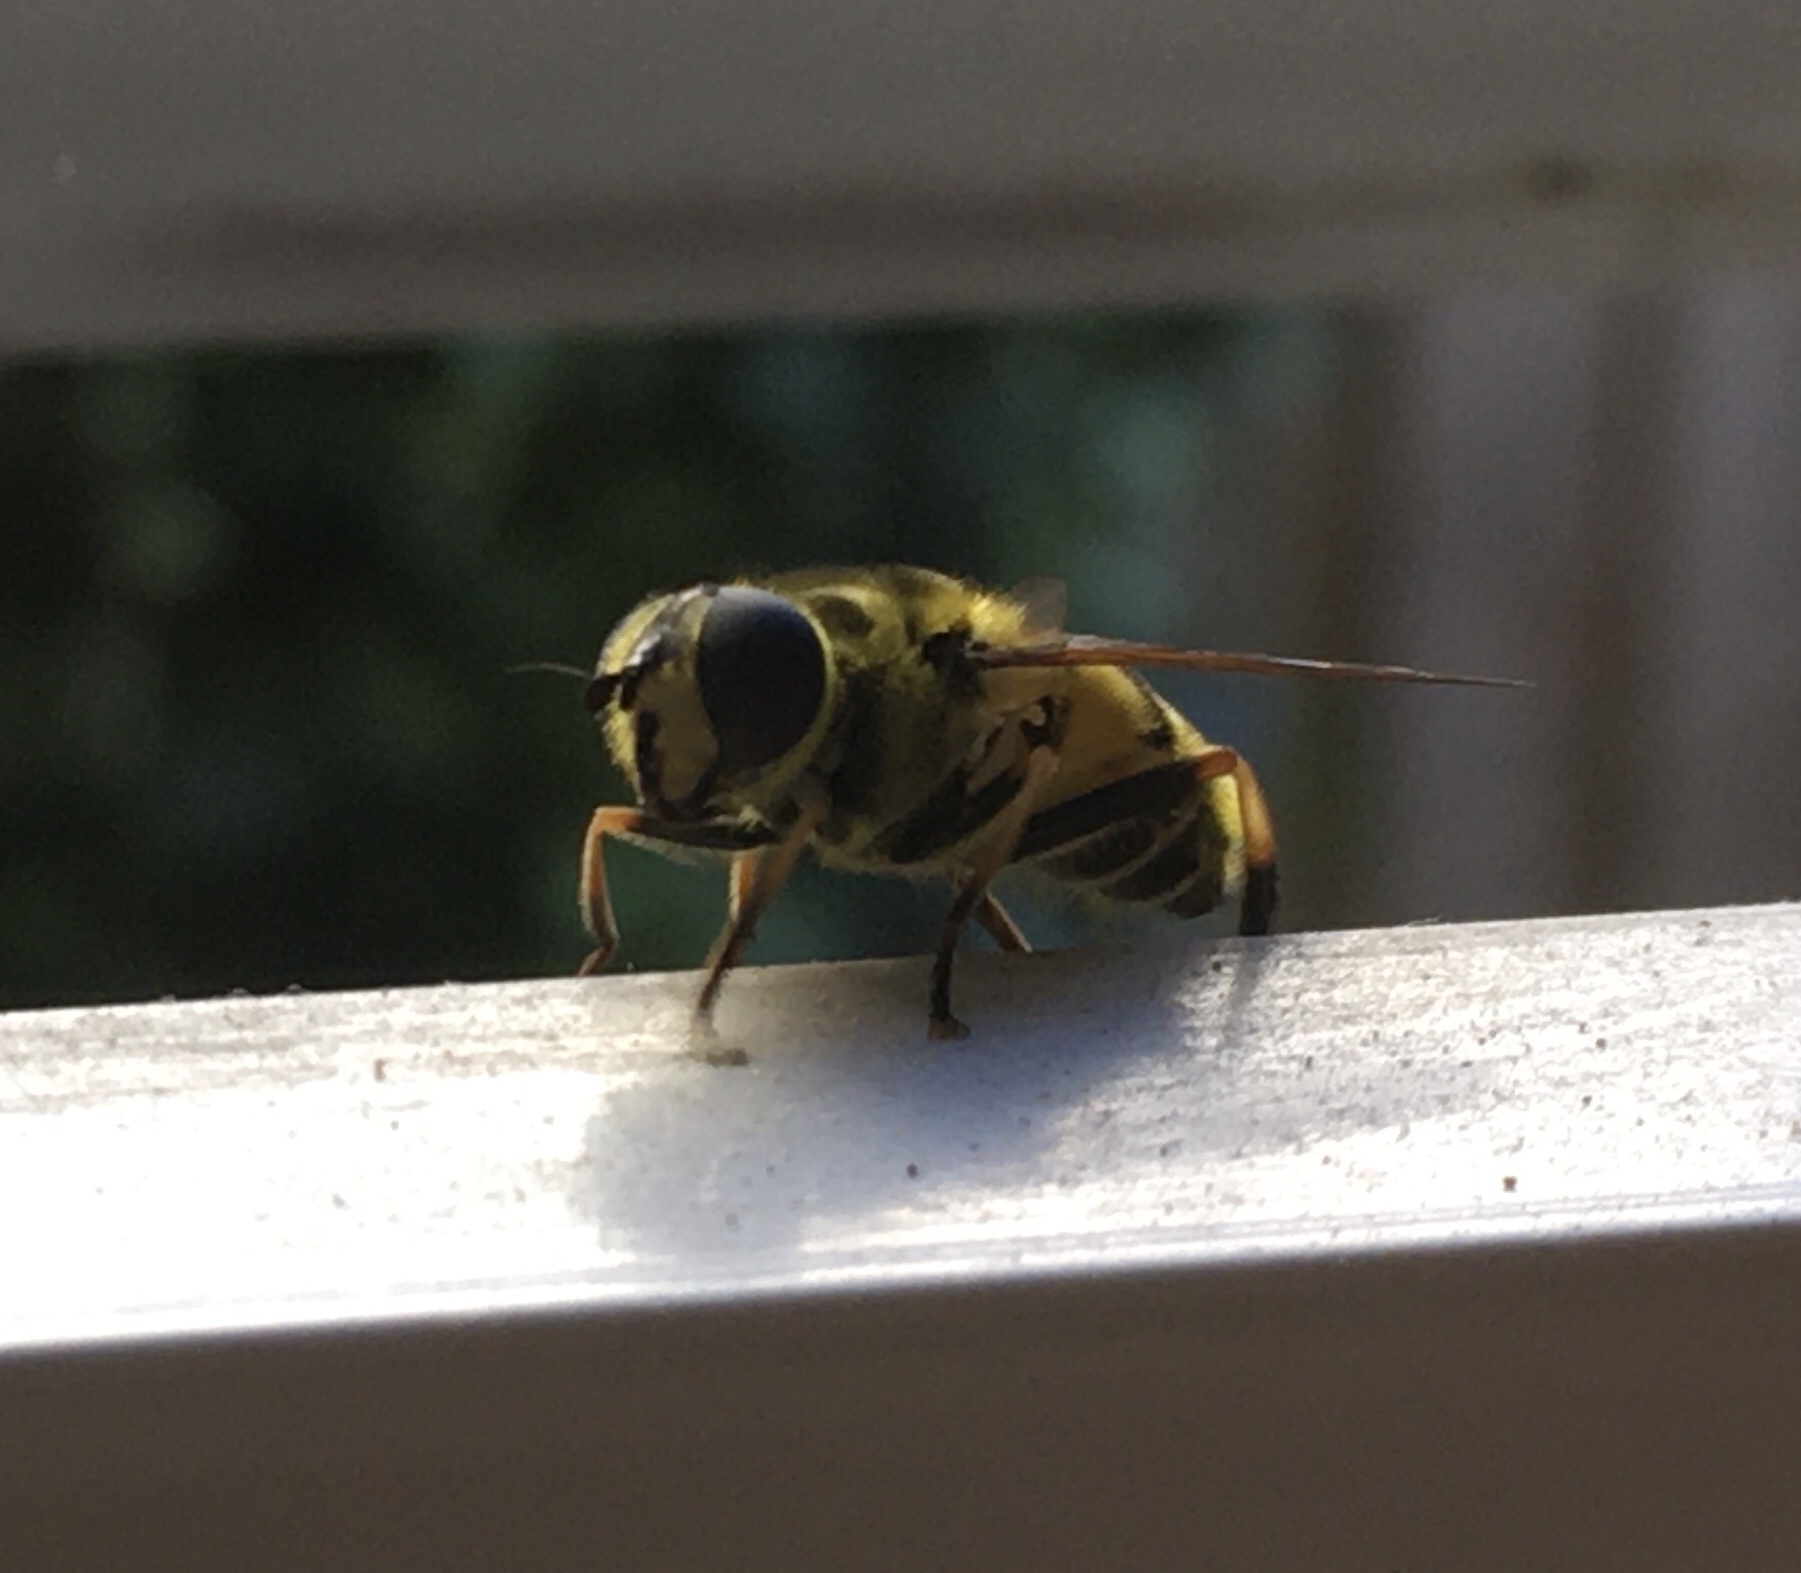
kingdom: Animalia
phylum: Arthropoda
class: Insecta
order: Diptera
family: Syrphidae
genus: Myathropa
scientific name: Myathropa florea
